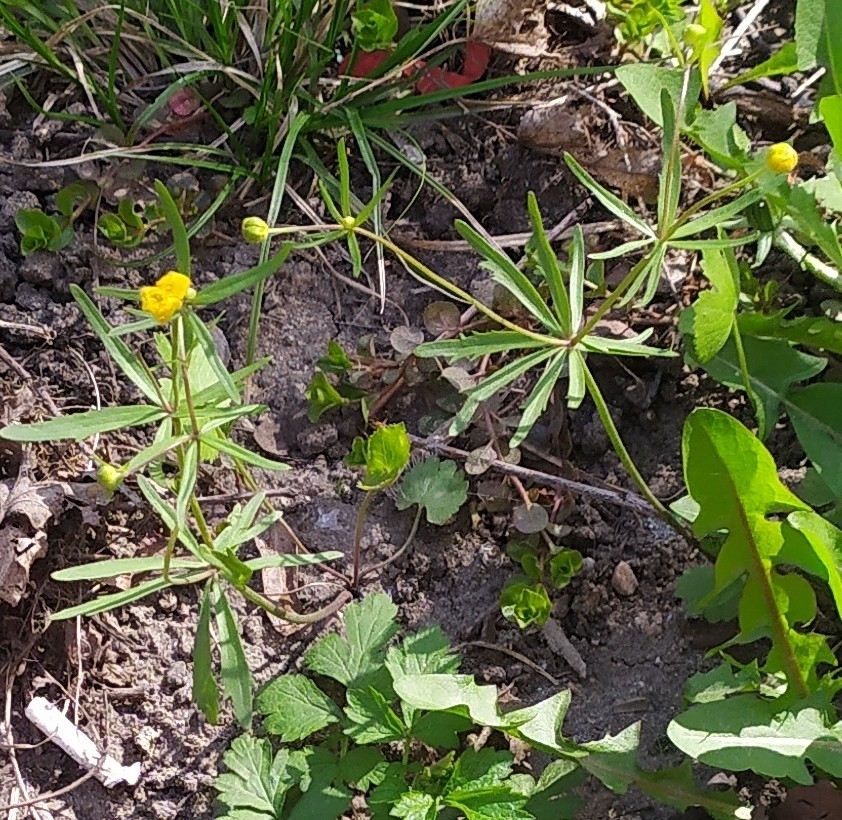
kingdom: Plantae
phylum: Tracheophyta
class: Magnoliopsida
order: Ranunculales
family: Ranunculaceae
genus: Ranunculus
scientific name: Ranunculus auricomus
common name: Goldilocks buttercup
